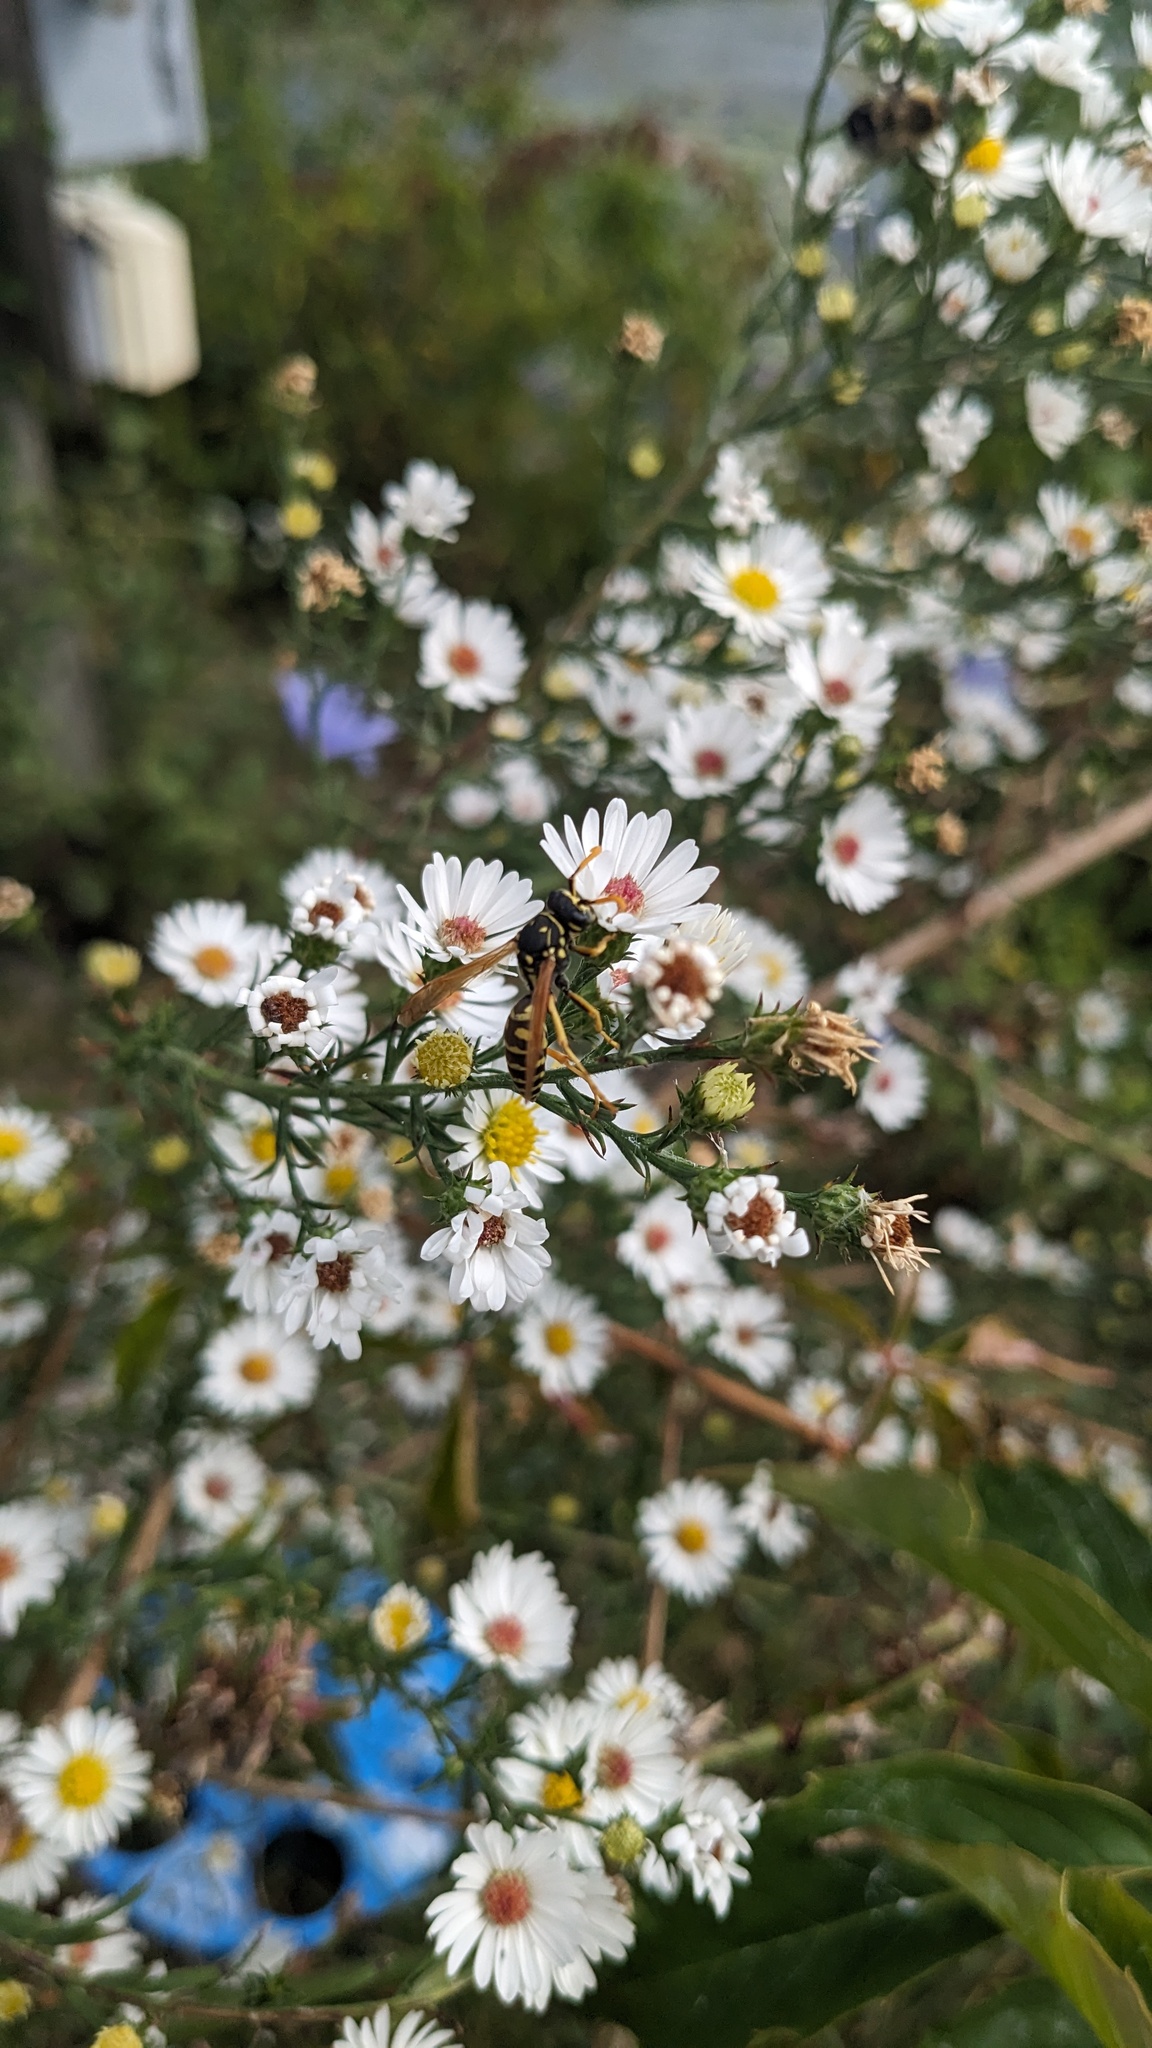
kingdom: Animalia
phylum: Arthropoda
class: Insecta
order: Hymenoptera
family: Eumenidae
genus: Polistes
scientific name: Polistes dominula
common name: Paper wasp
